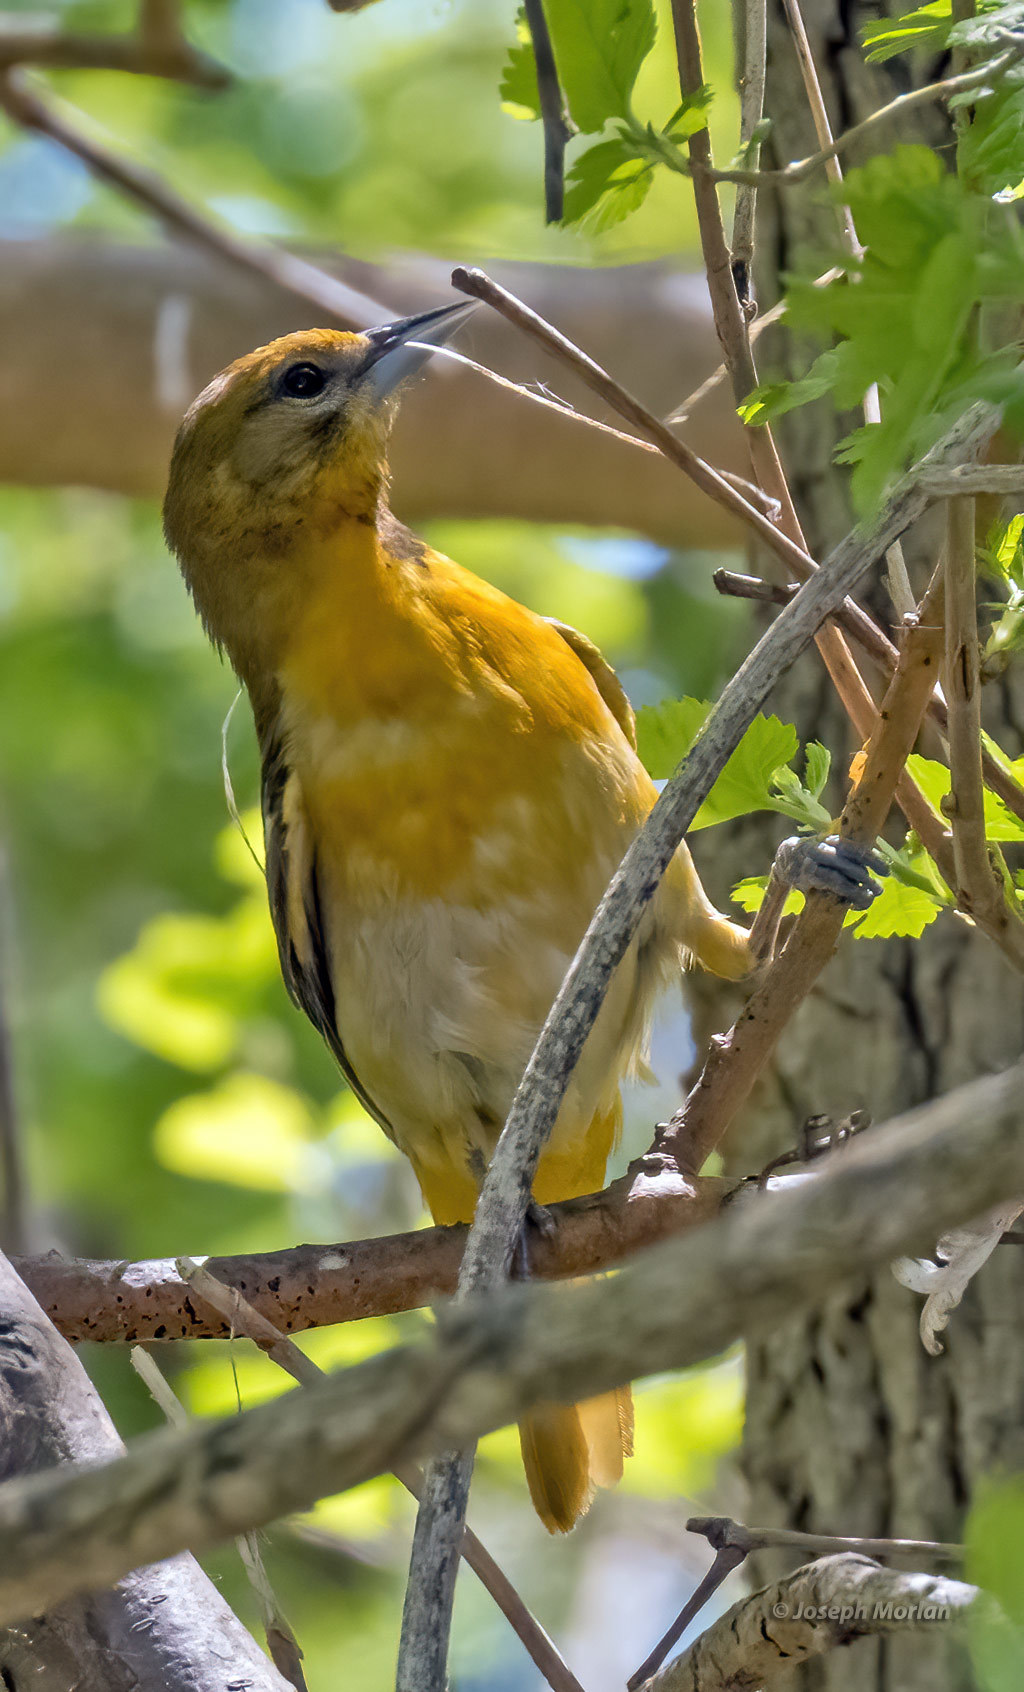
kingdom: Animalia
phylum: Chordata
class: Aves
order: Passeriformes
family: Icteridae
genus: Icterus
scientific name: Icterus galbula
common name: Baltimore oriole
